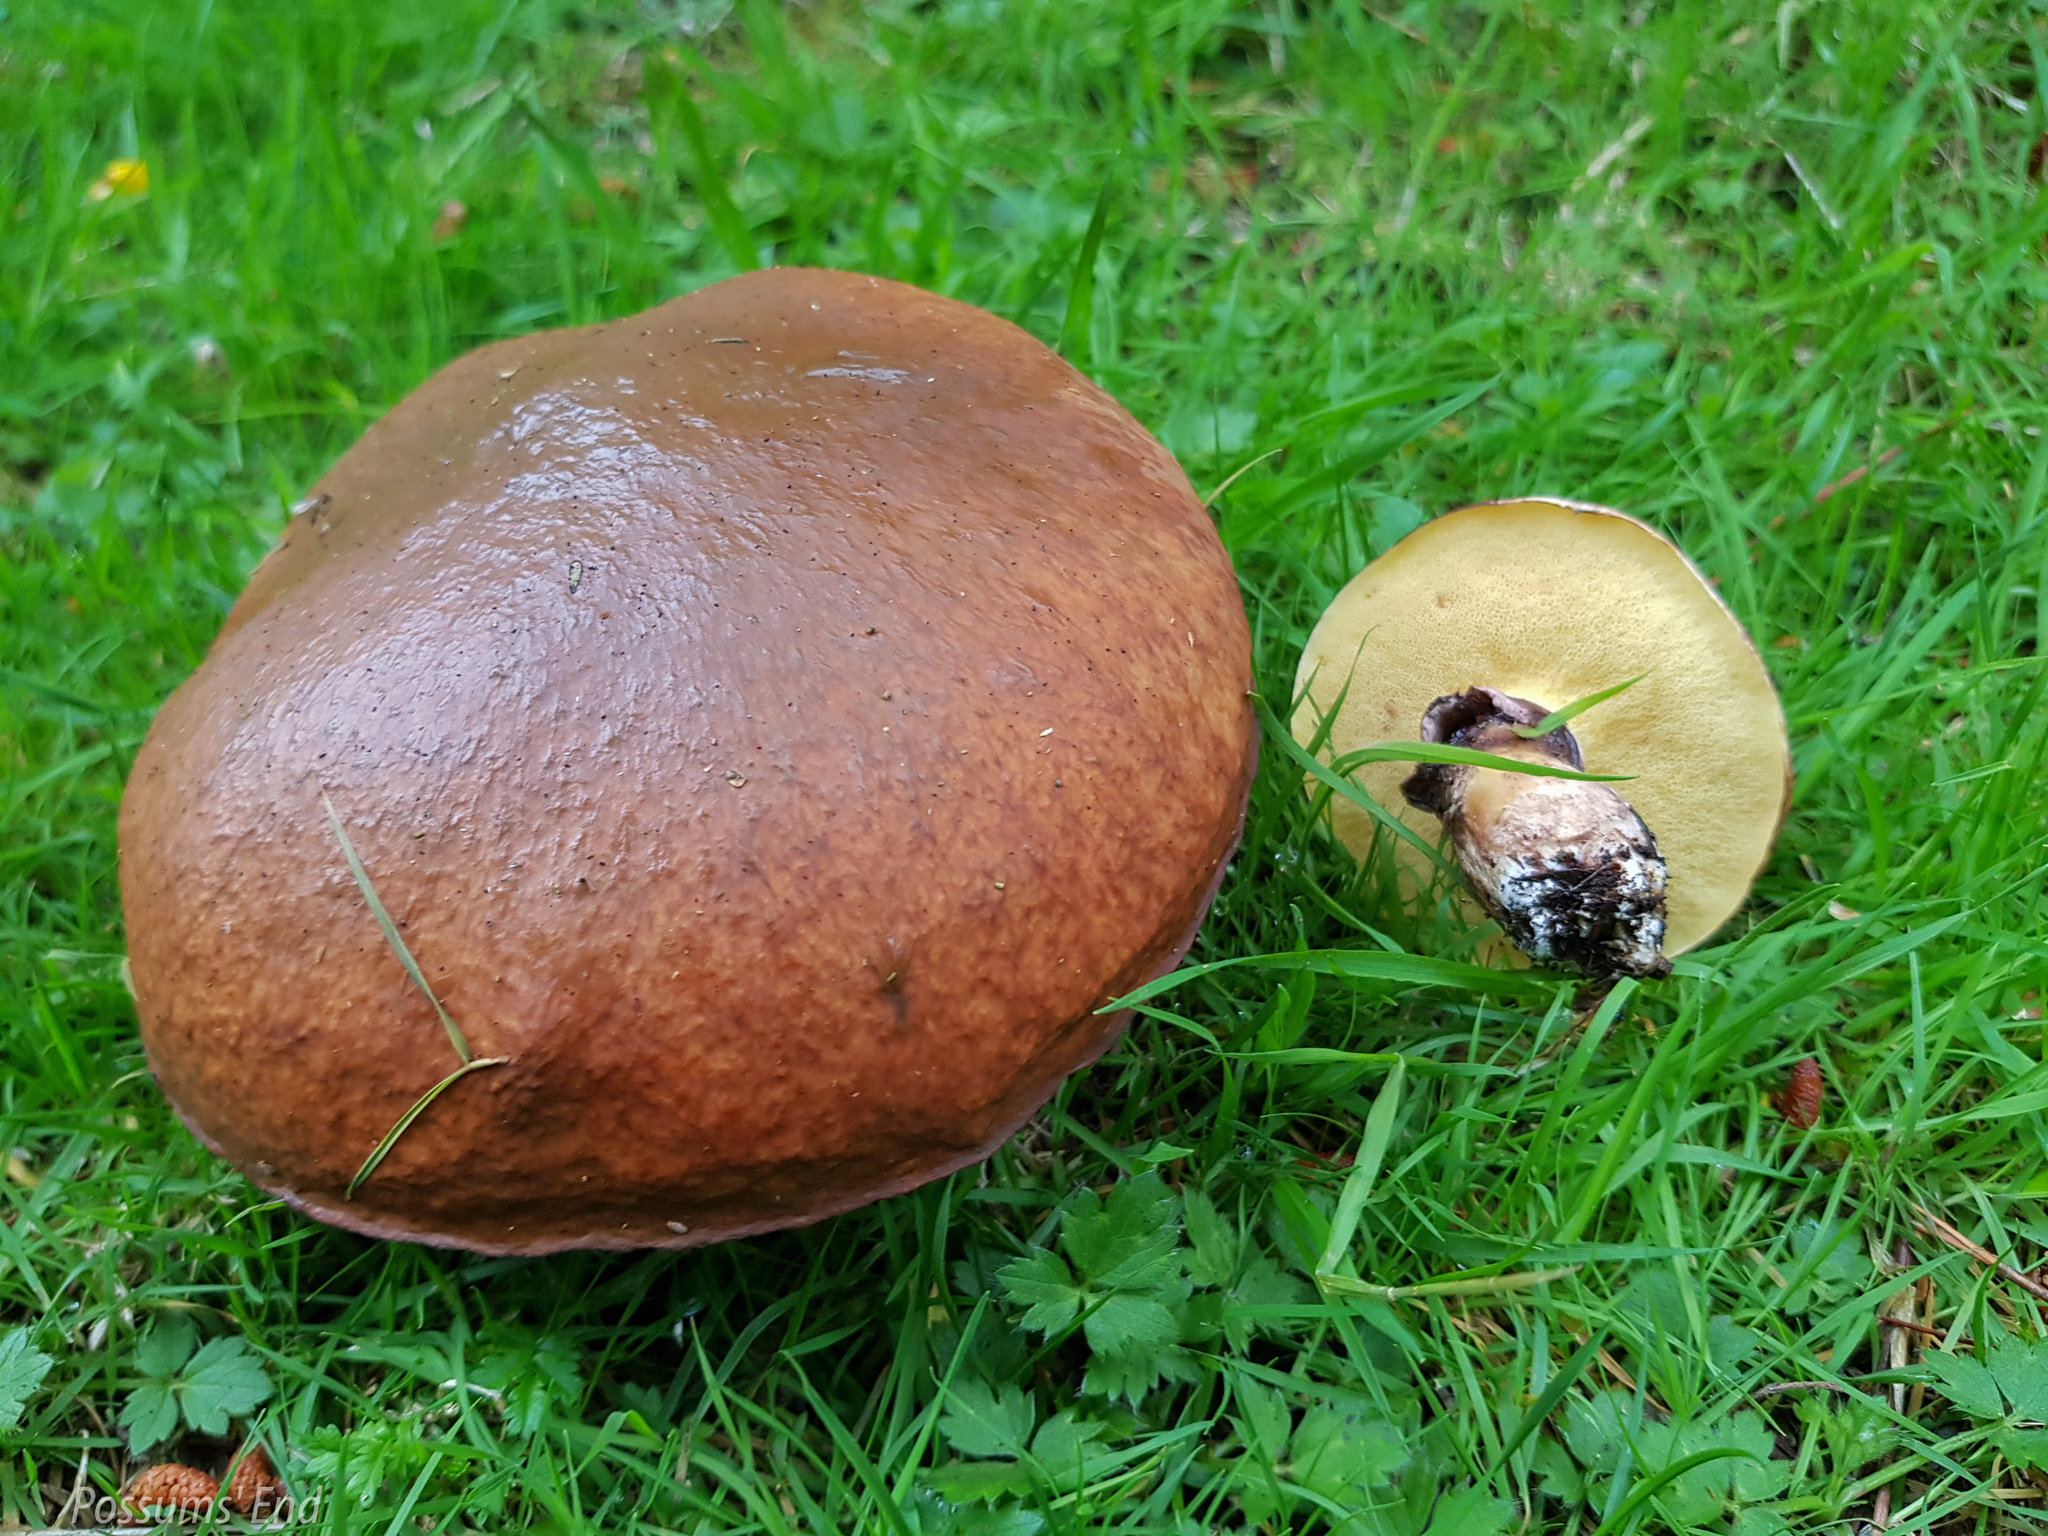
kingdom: Fungi
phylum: Basidiomycota
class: Agaricomycetes
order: Boletales
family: Suillaceae
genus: Suillus
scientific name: Suillus luteus
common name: Slippery jack
